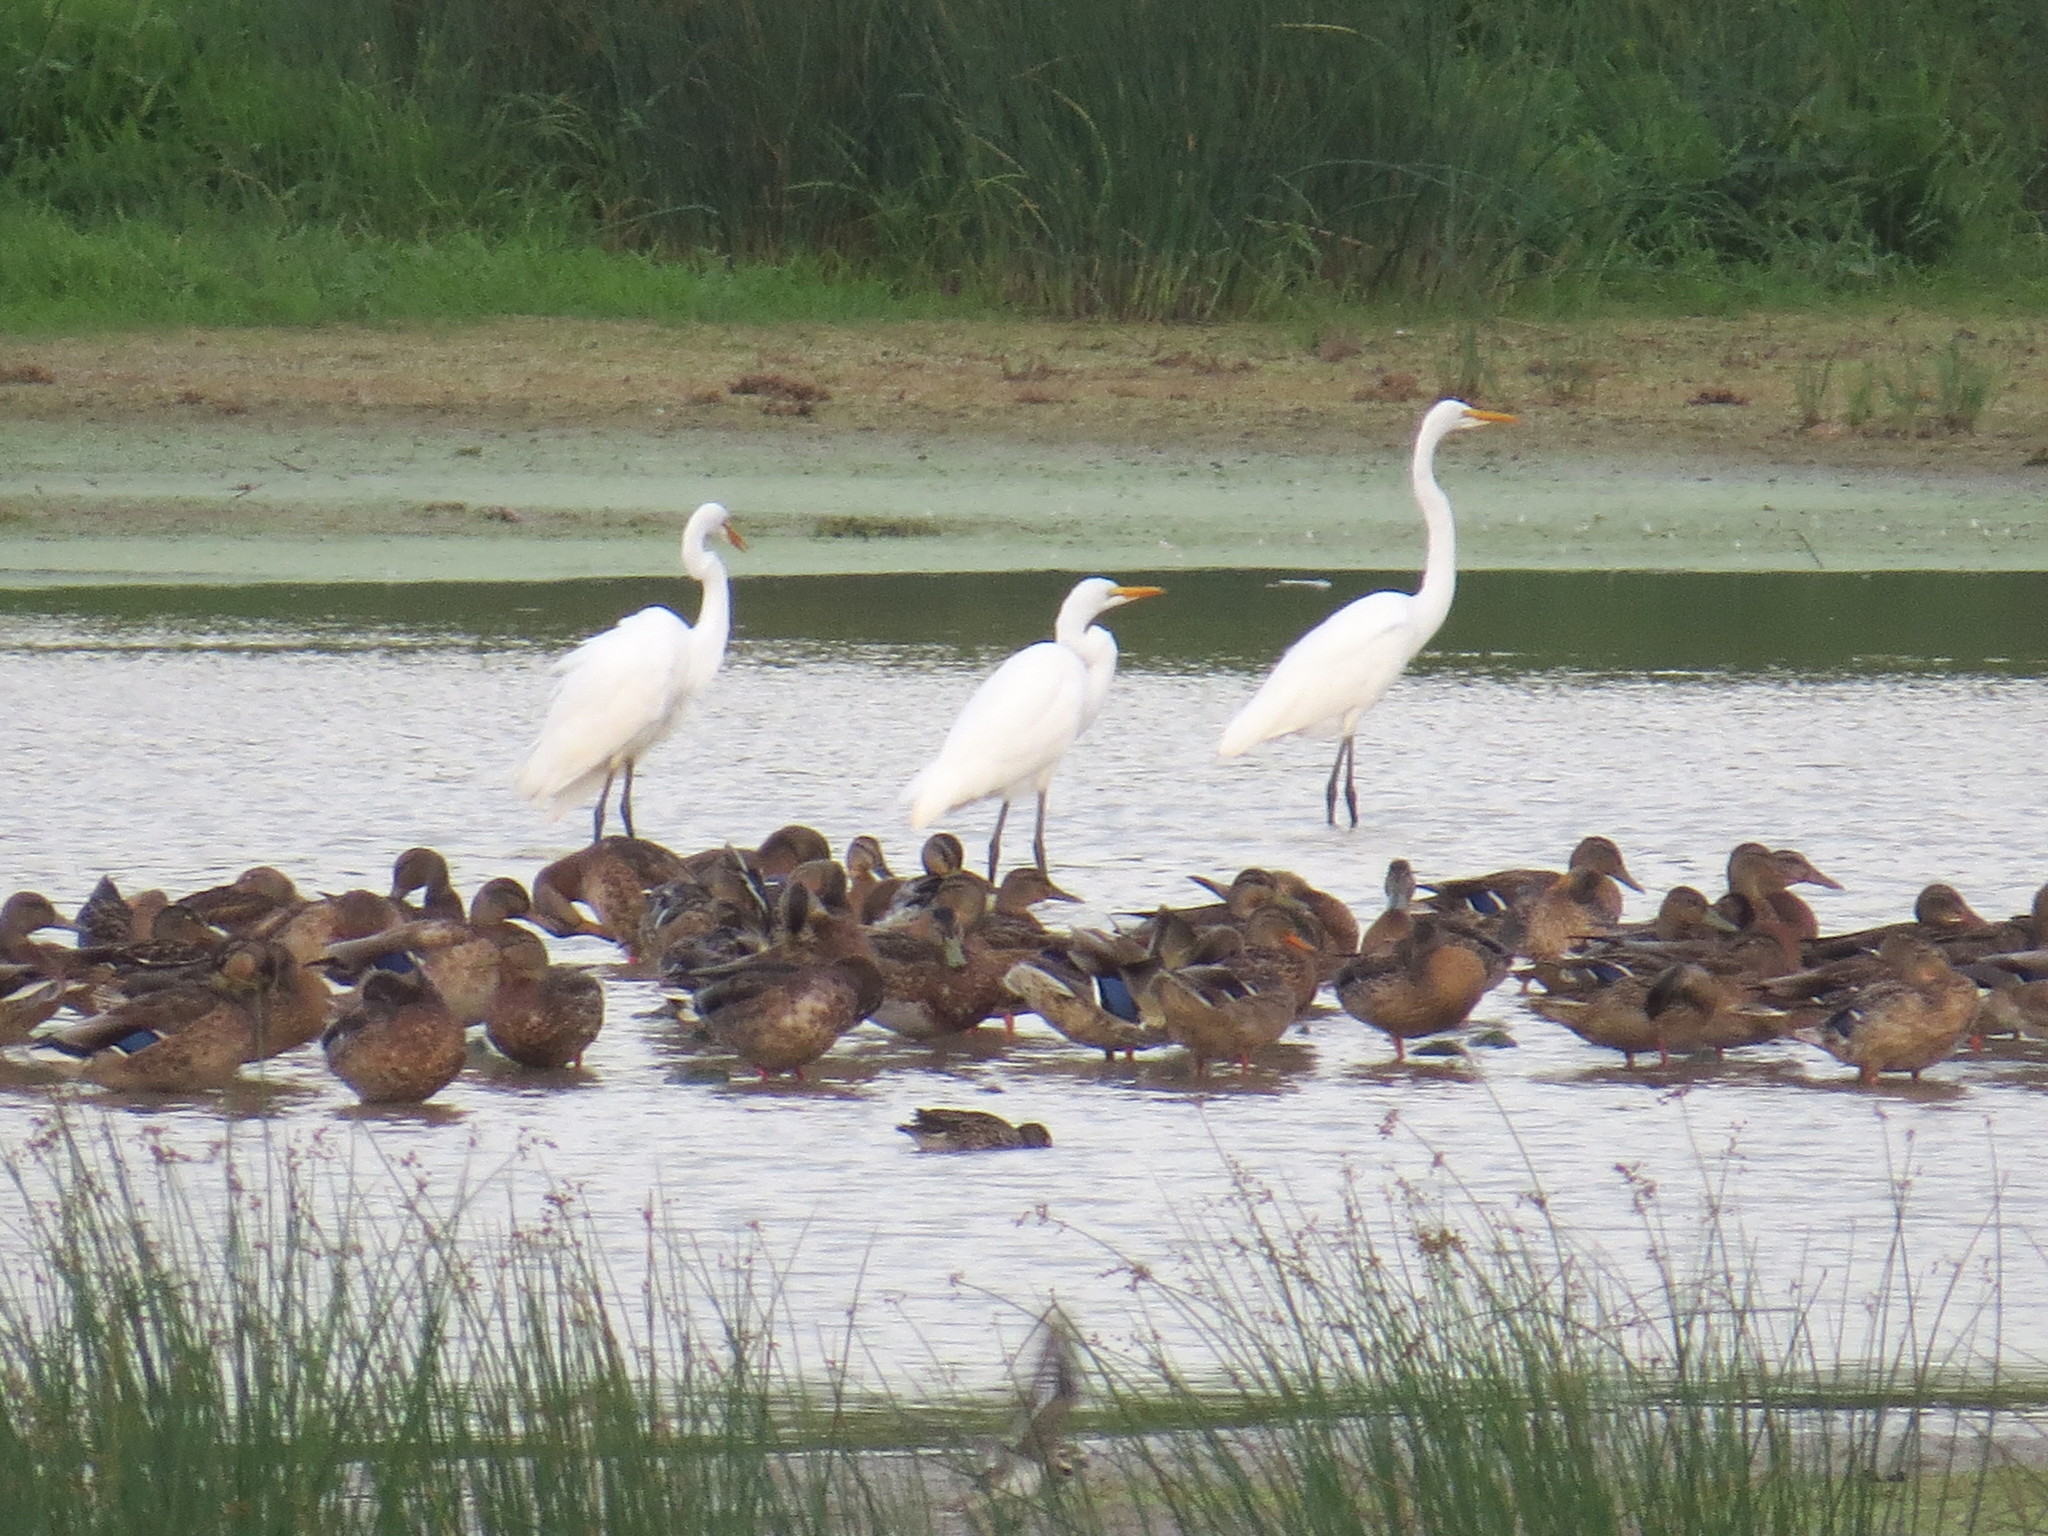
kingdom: Animalia
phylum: Chordata
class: Aves
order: Pelecaniformes
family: Ardeidae
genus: Ardea
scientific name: Ardea alba
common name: Great egret
